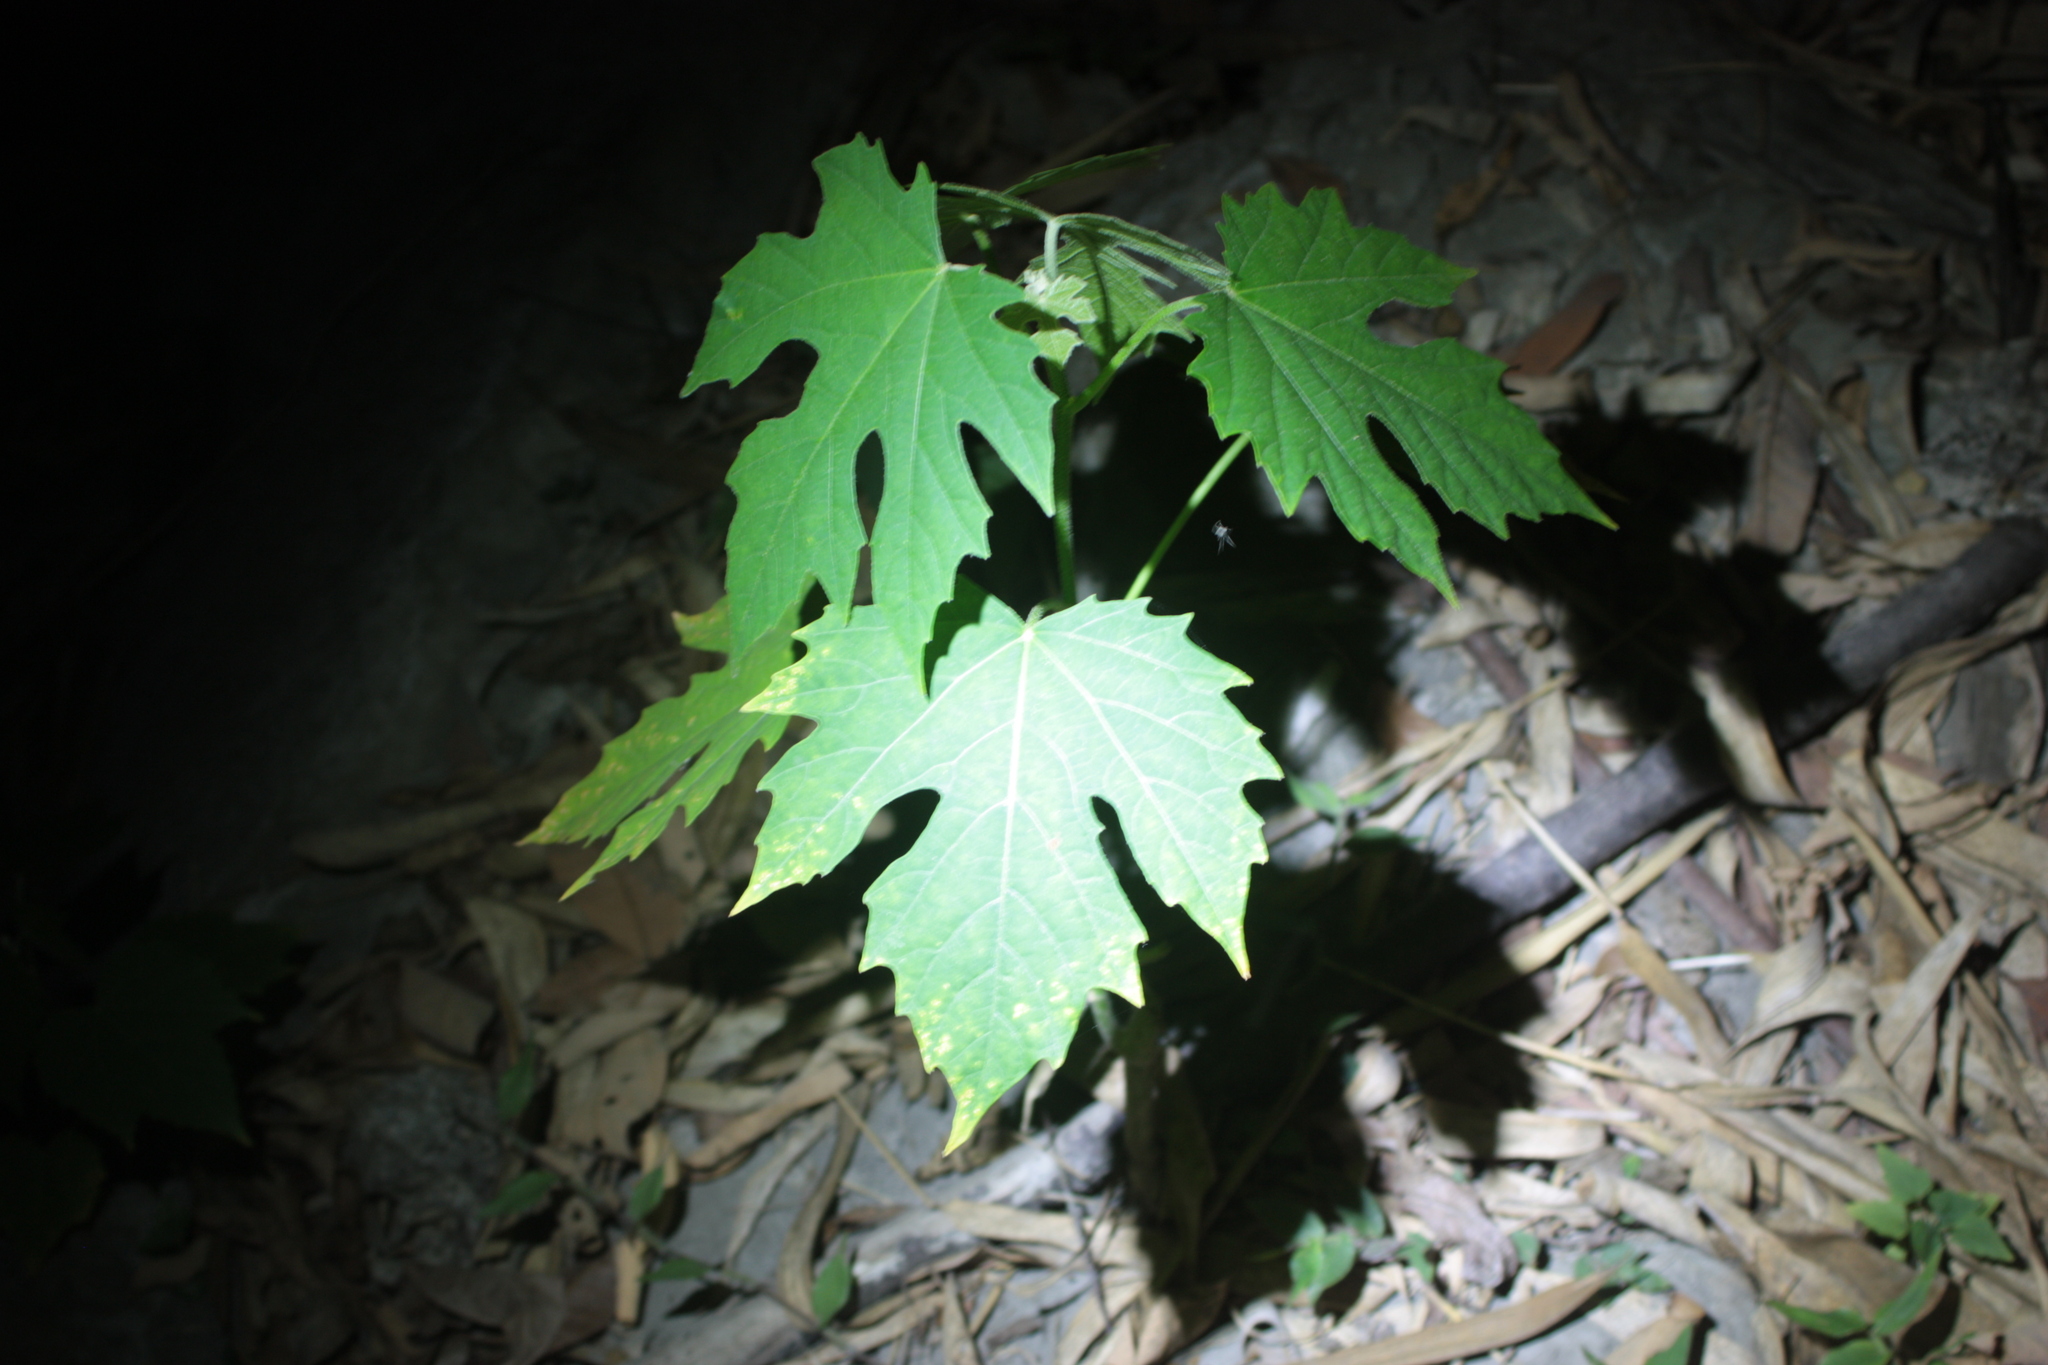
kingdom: Plantae
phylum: Tracheophyta
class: Magnoliopsida
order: Malpighiales
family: Euphorbiaceae
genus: Melanolepis
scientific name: Melanolepis multiglandulosa
